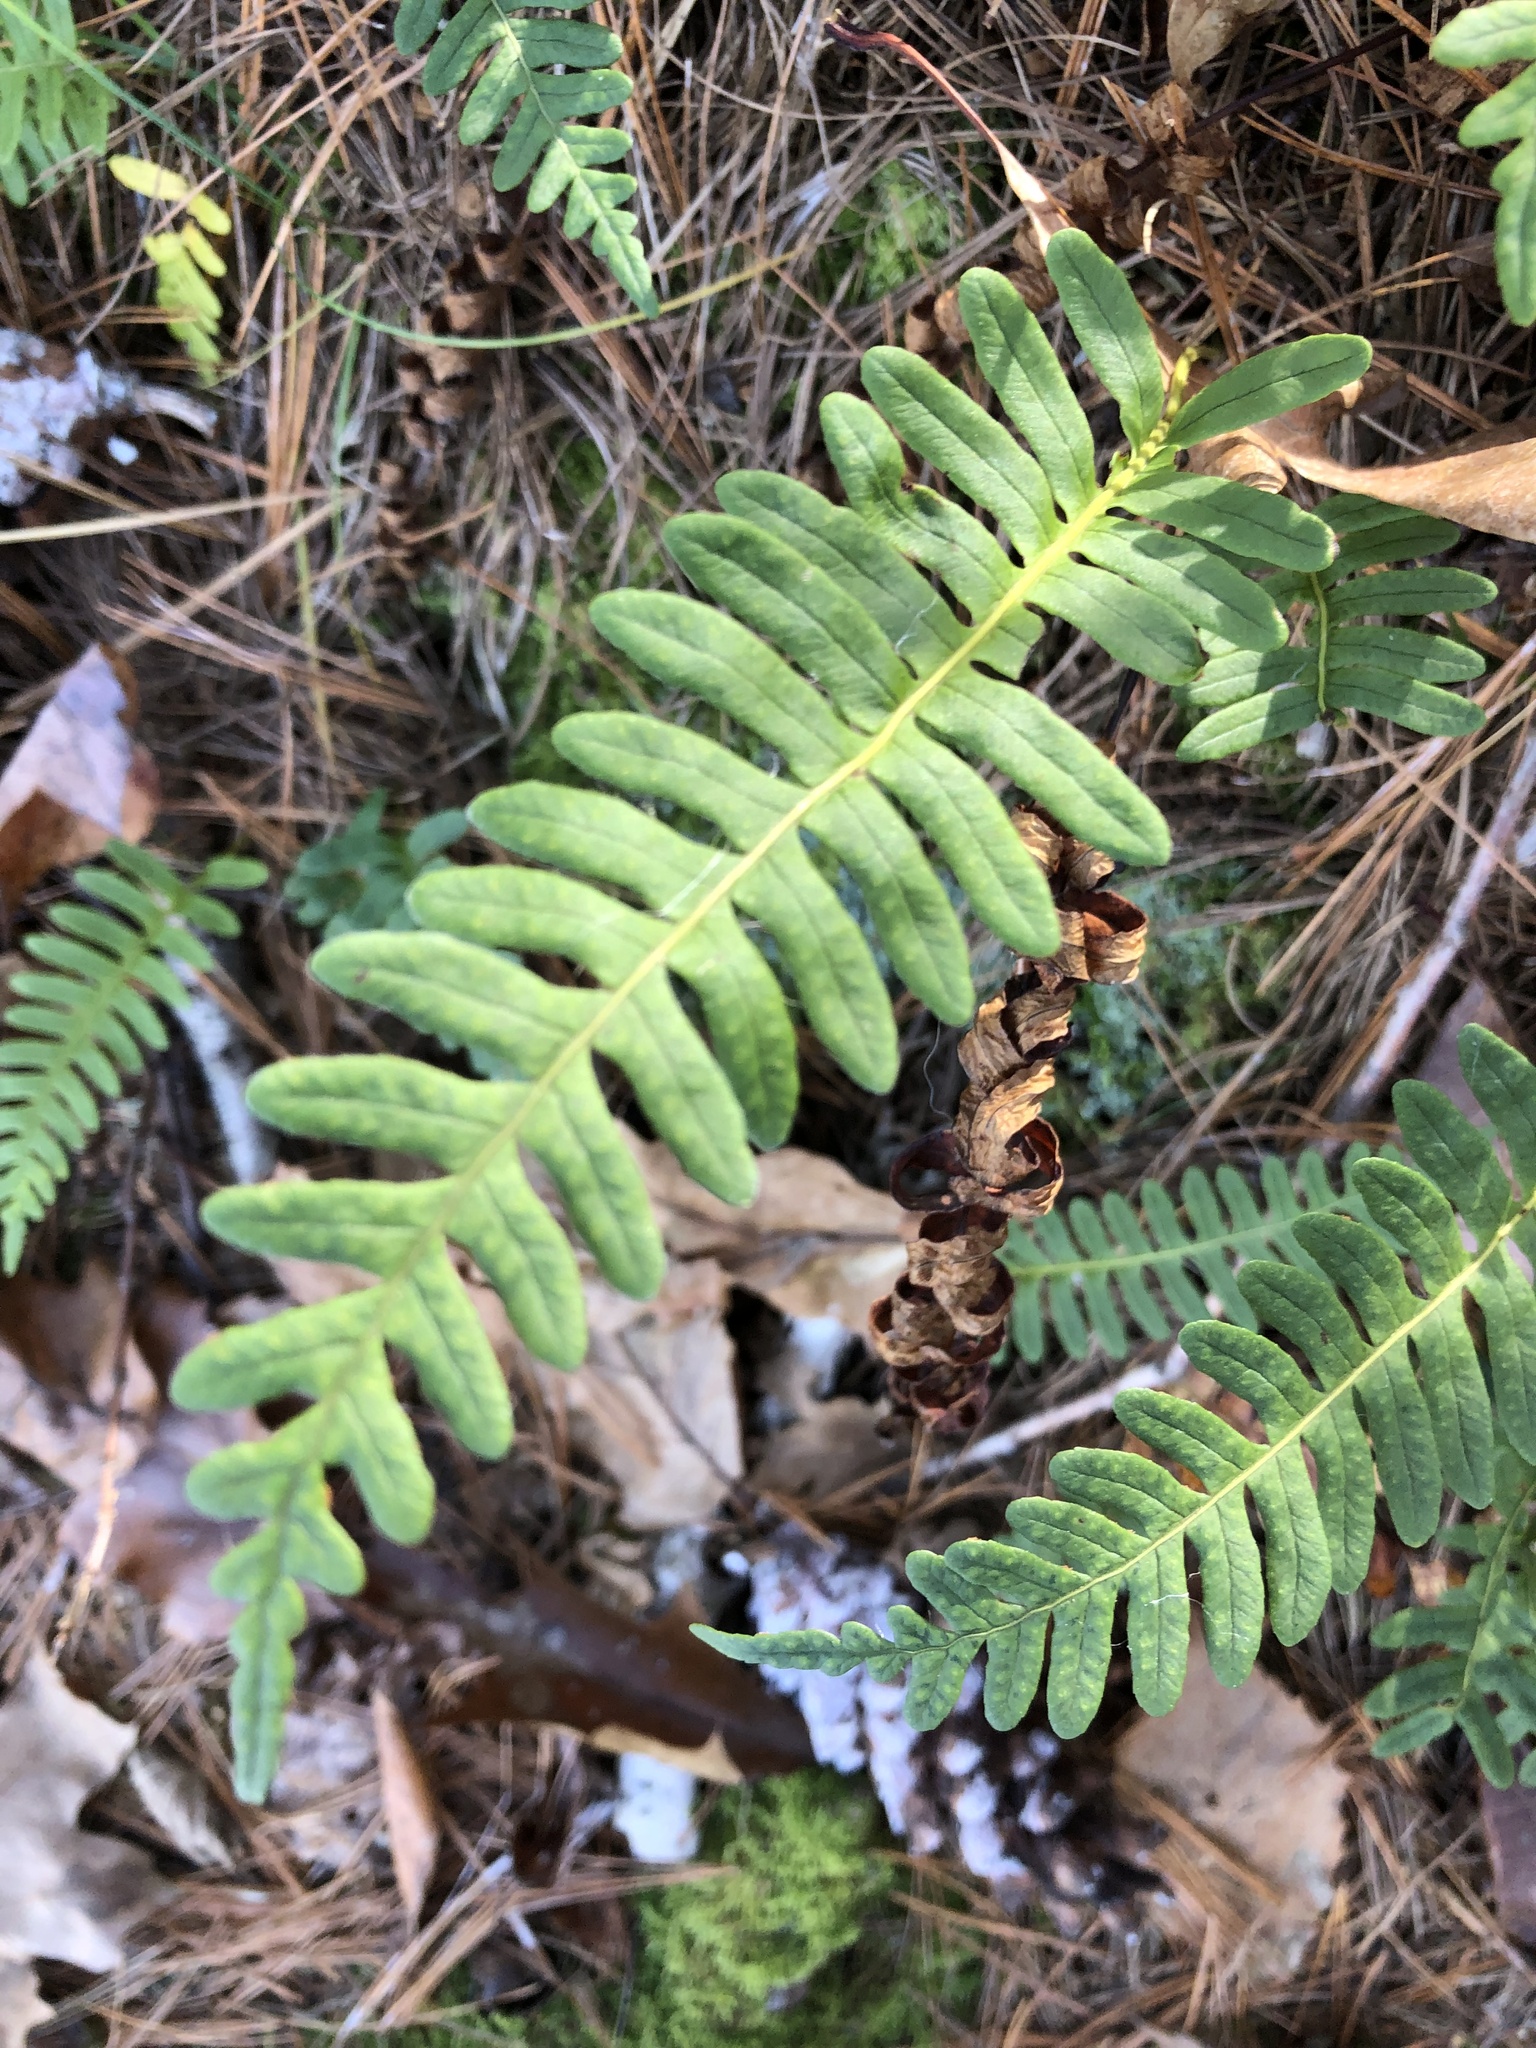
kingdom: Plantae
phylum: Tracheophyta
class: Polypodiopsida
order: Polypodiales
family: Polypodiaceae
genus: Polypodium
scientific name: Polypodium virginianum
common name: American wall fern
